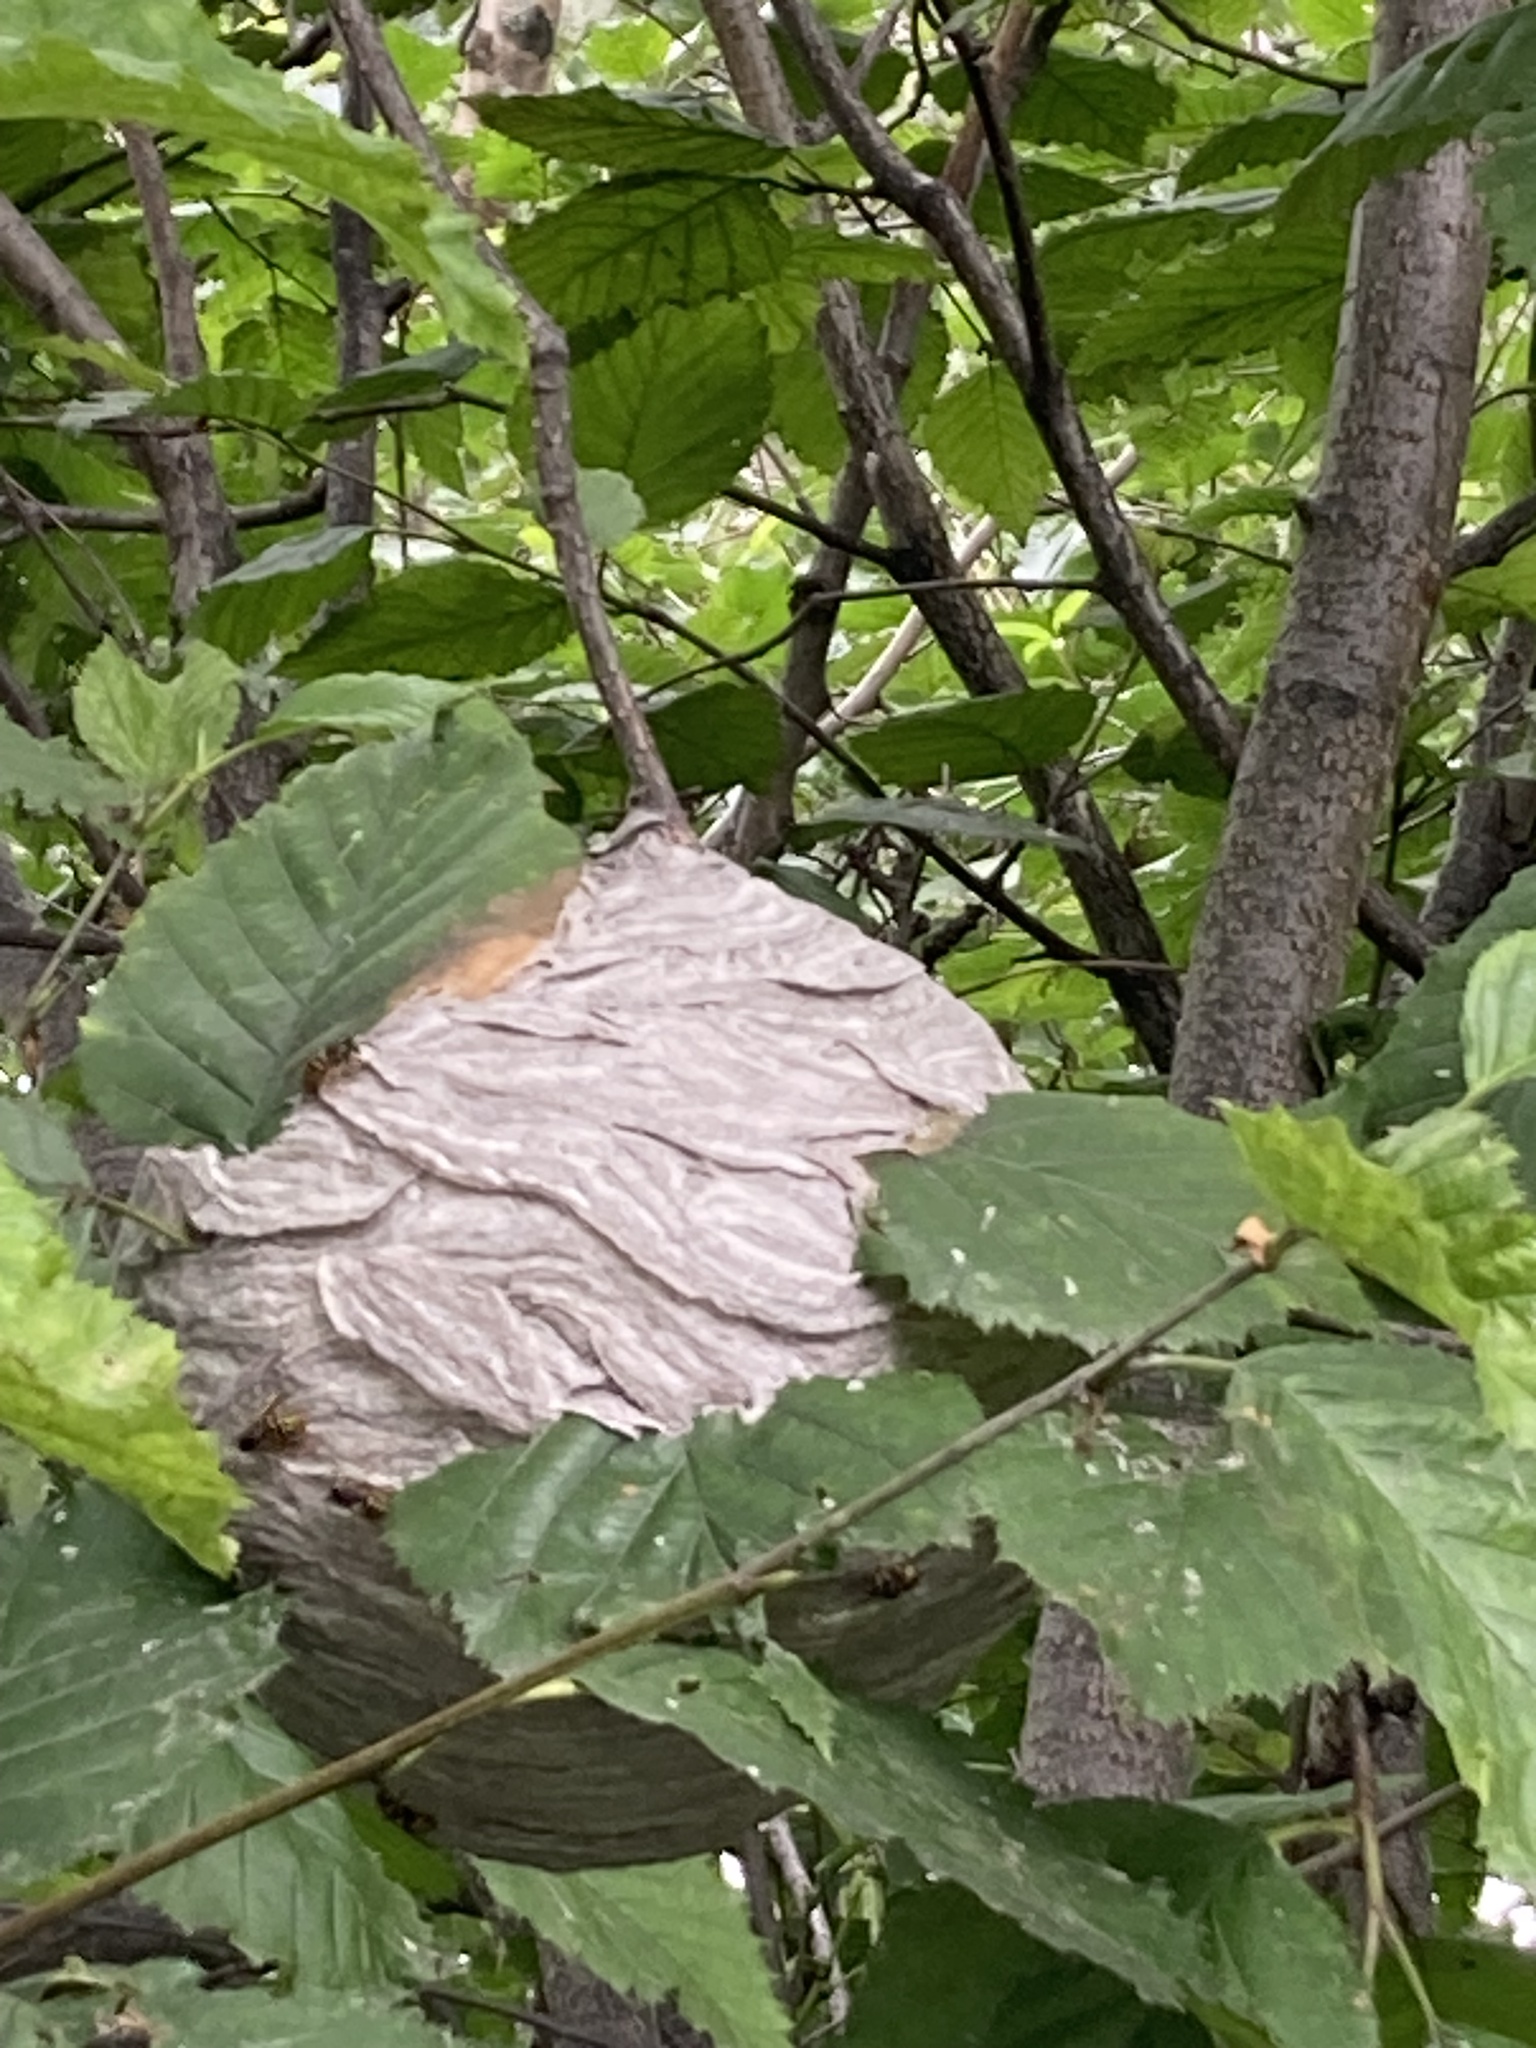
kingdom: Animalia
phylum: Arthropoda
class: Insecta
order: Hymenoptera
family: Vespidae
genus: Dolichovespula
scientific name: Dolichovespula arenaria
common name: Aerial yellowjacket
